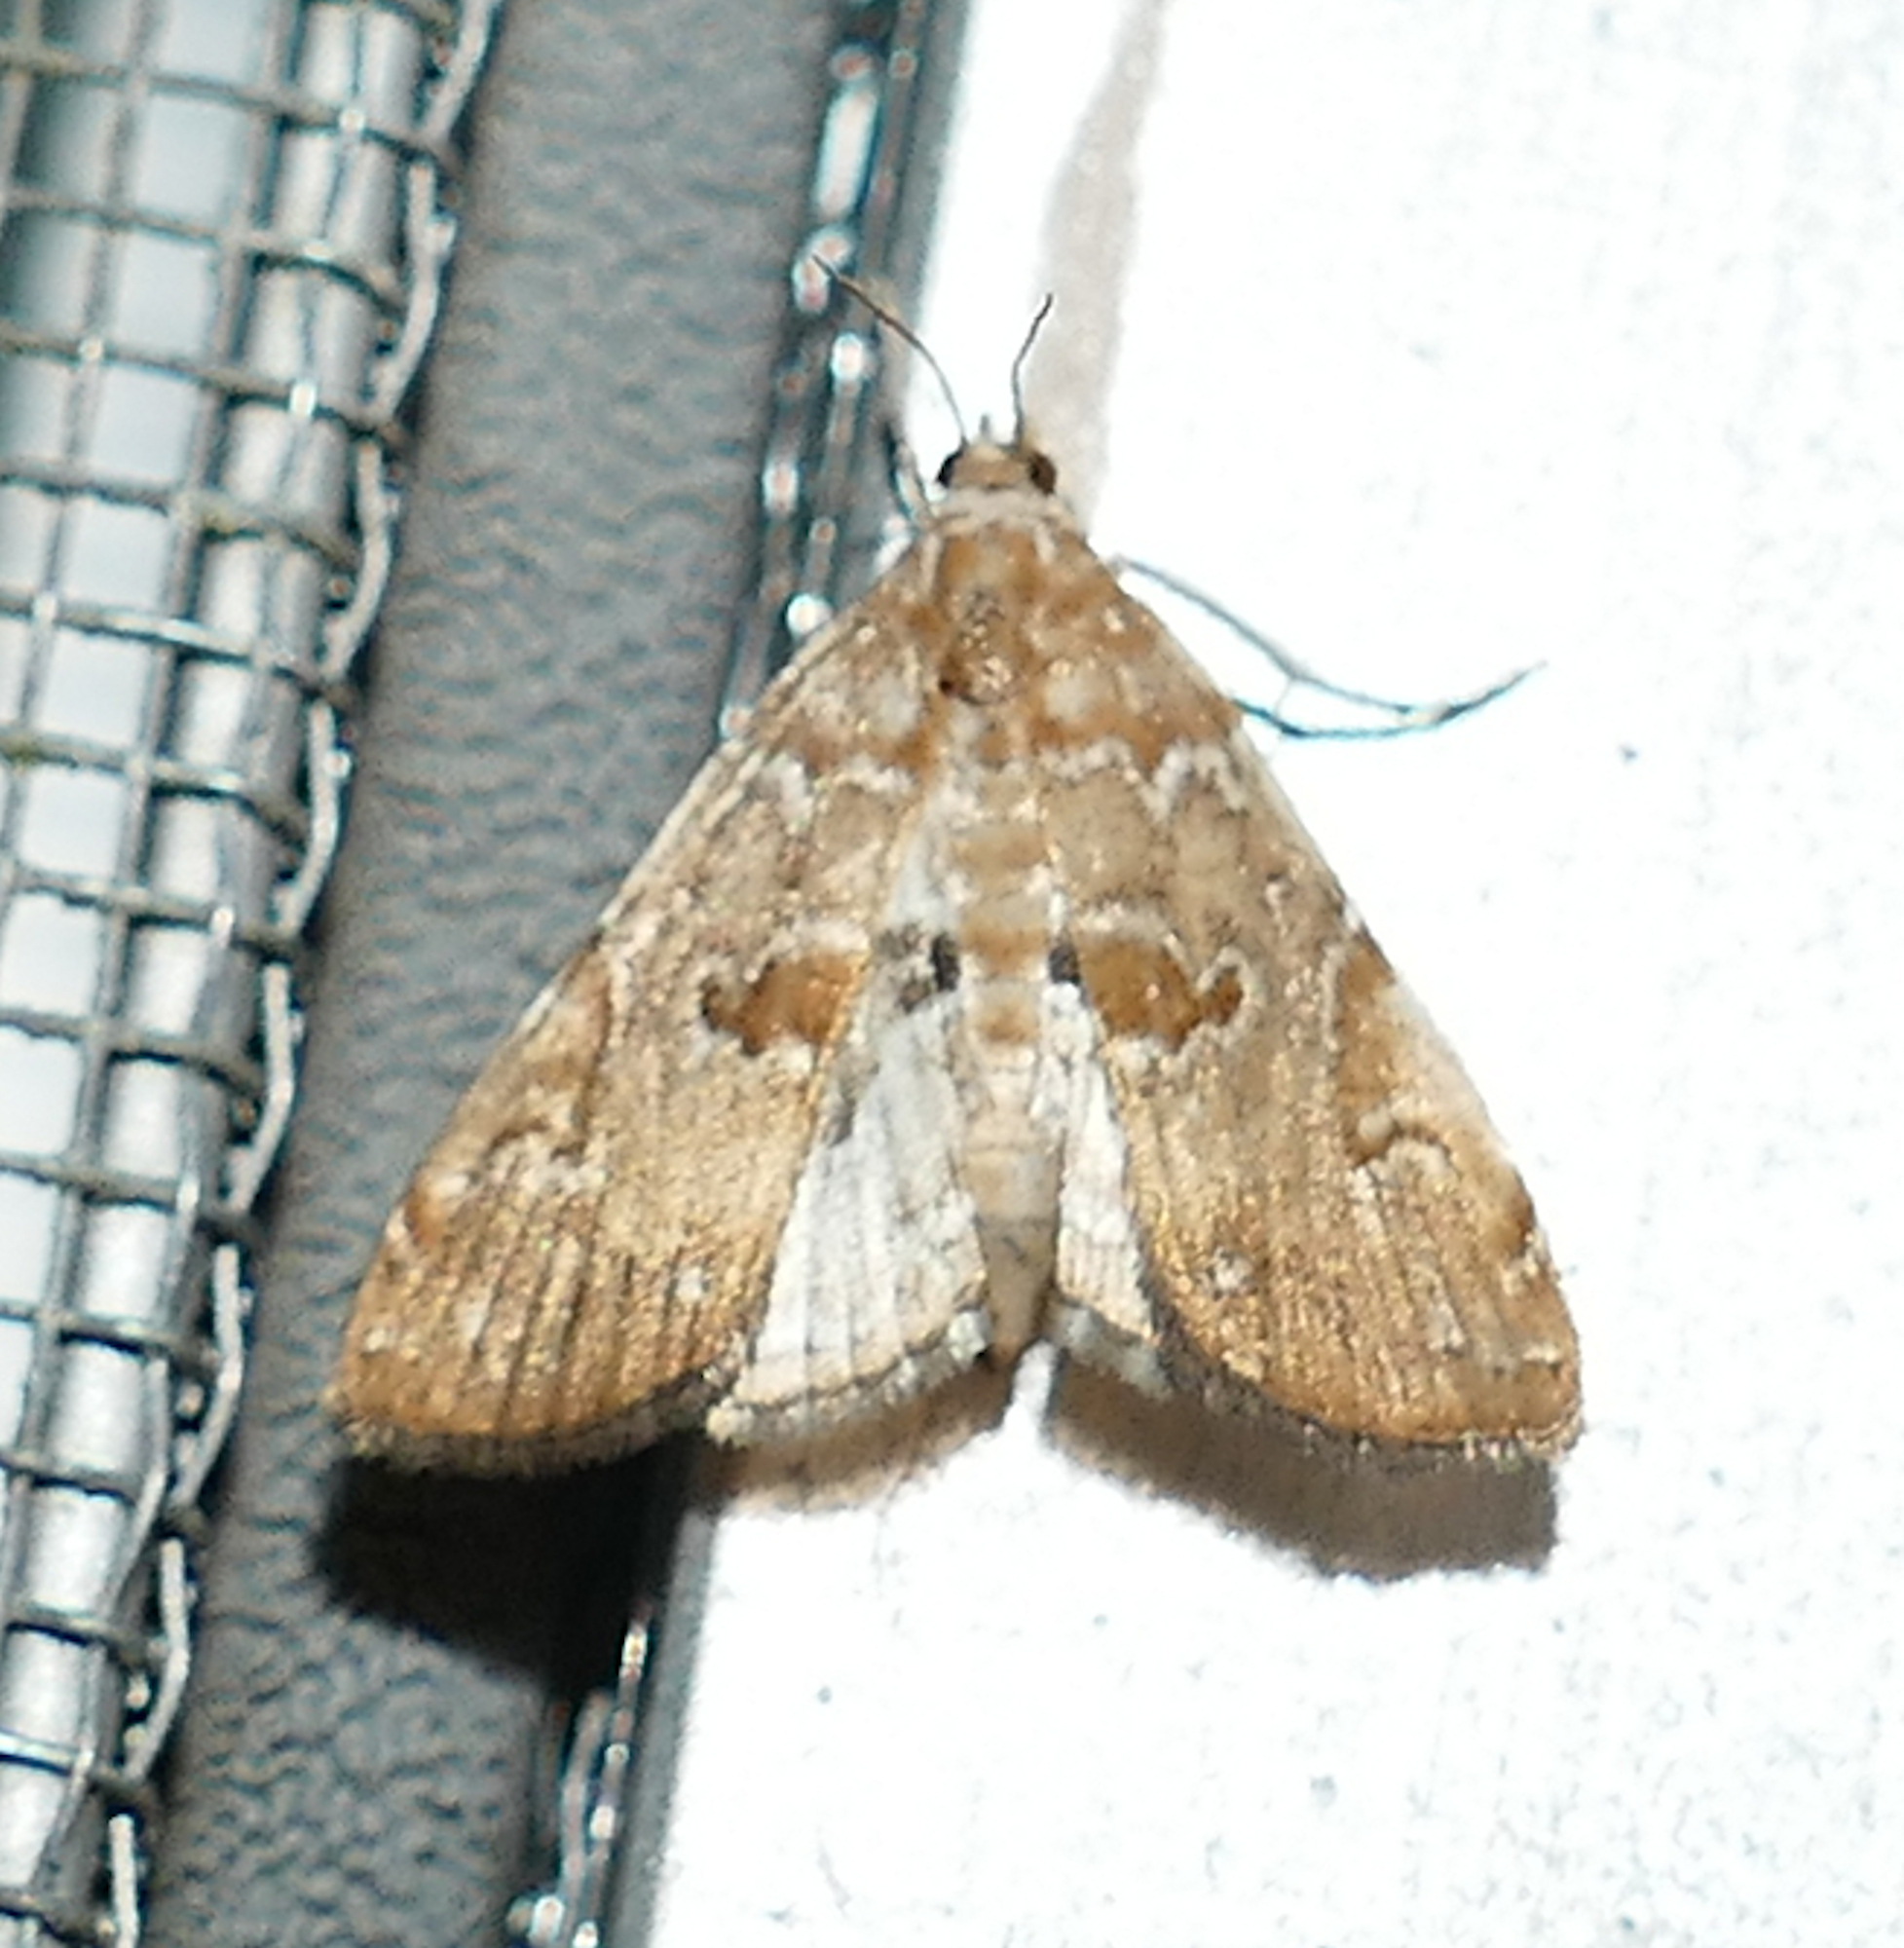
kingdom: Animalia
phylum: Arthropoda
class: Insecta
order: Lepidoptera
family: Crambidae
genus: Elophila
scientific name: Elophila gyralis
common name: Waterlily borer moth
